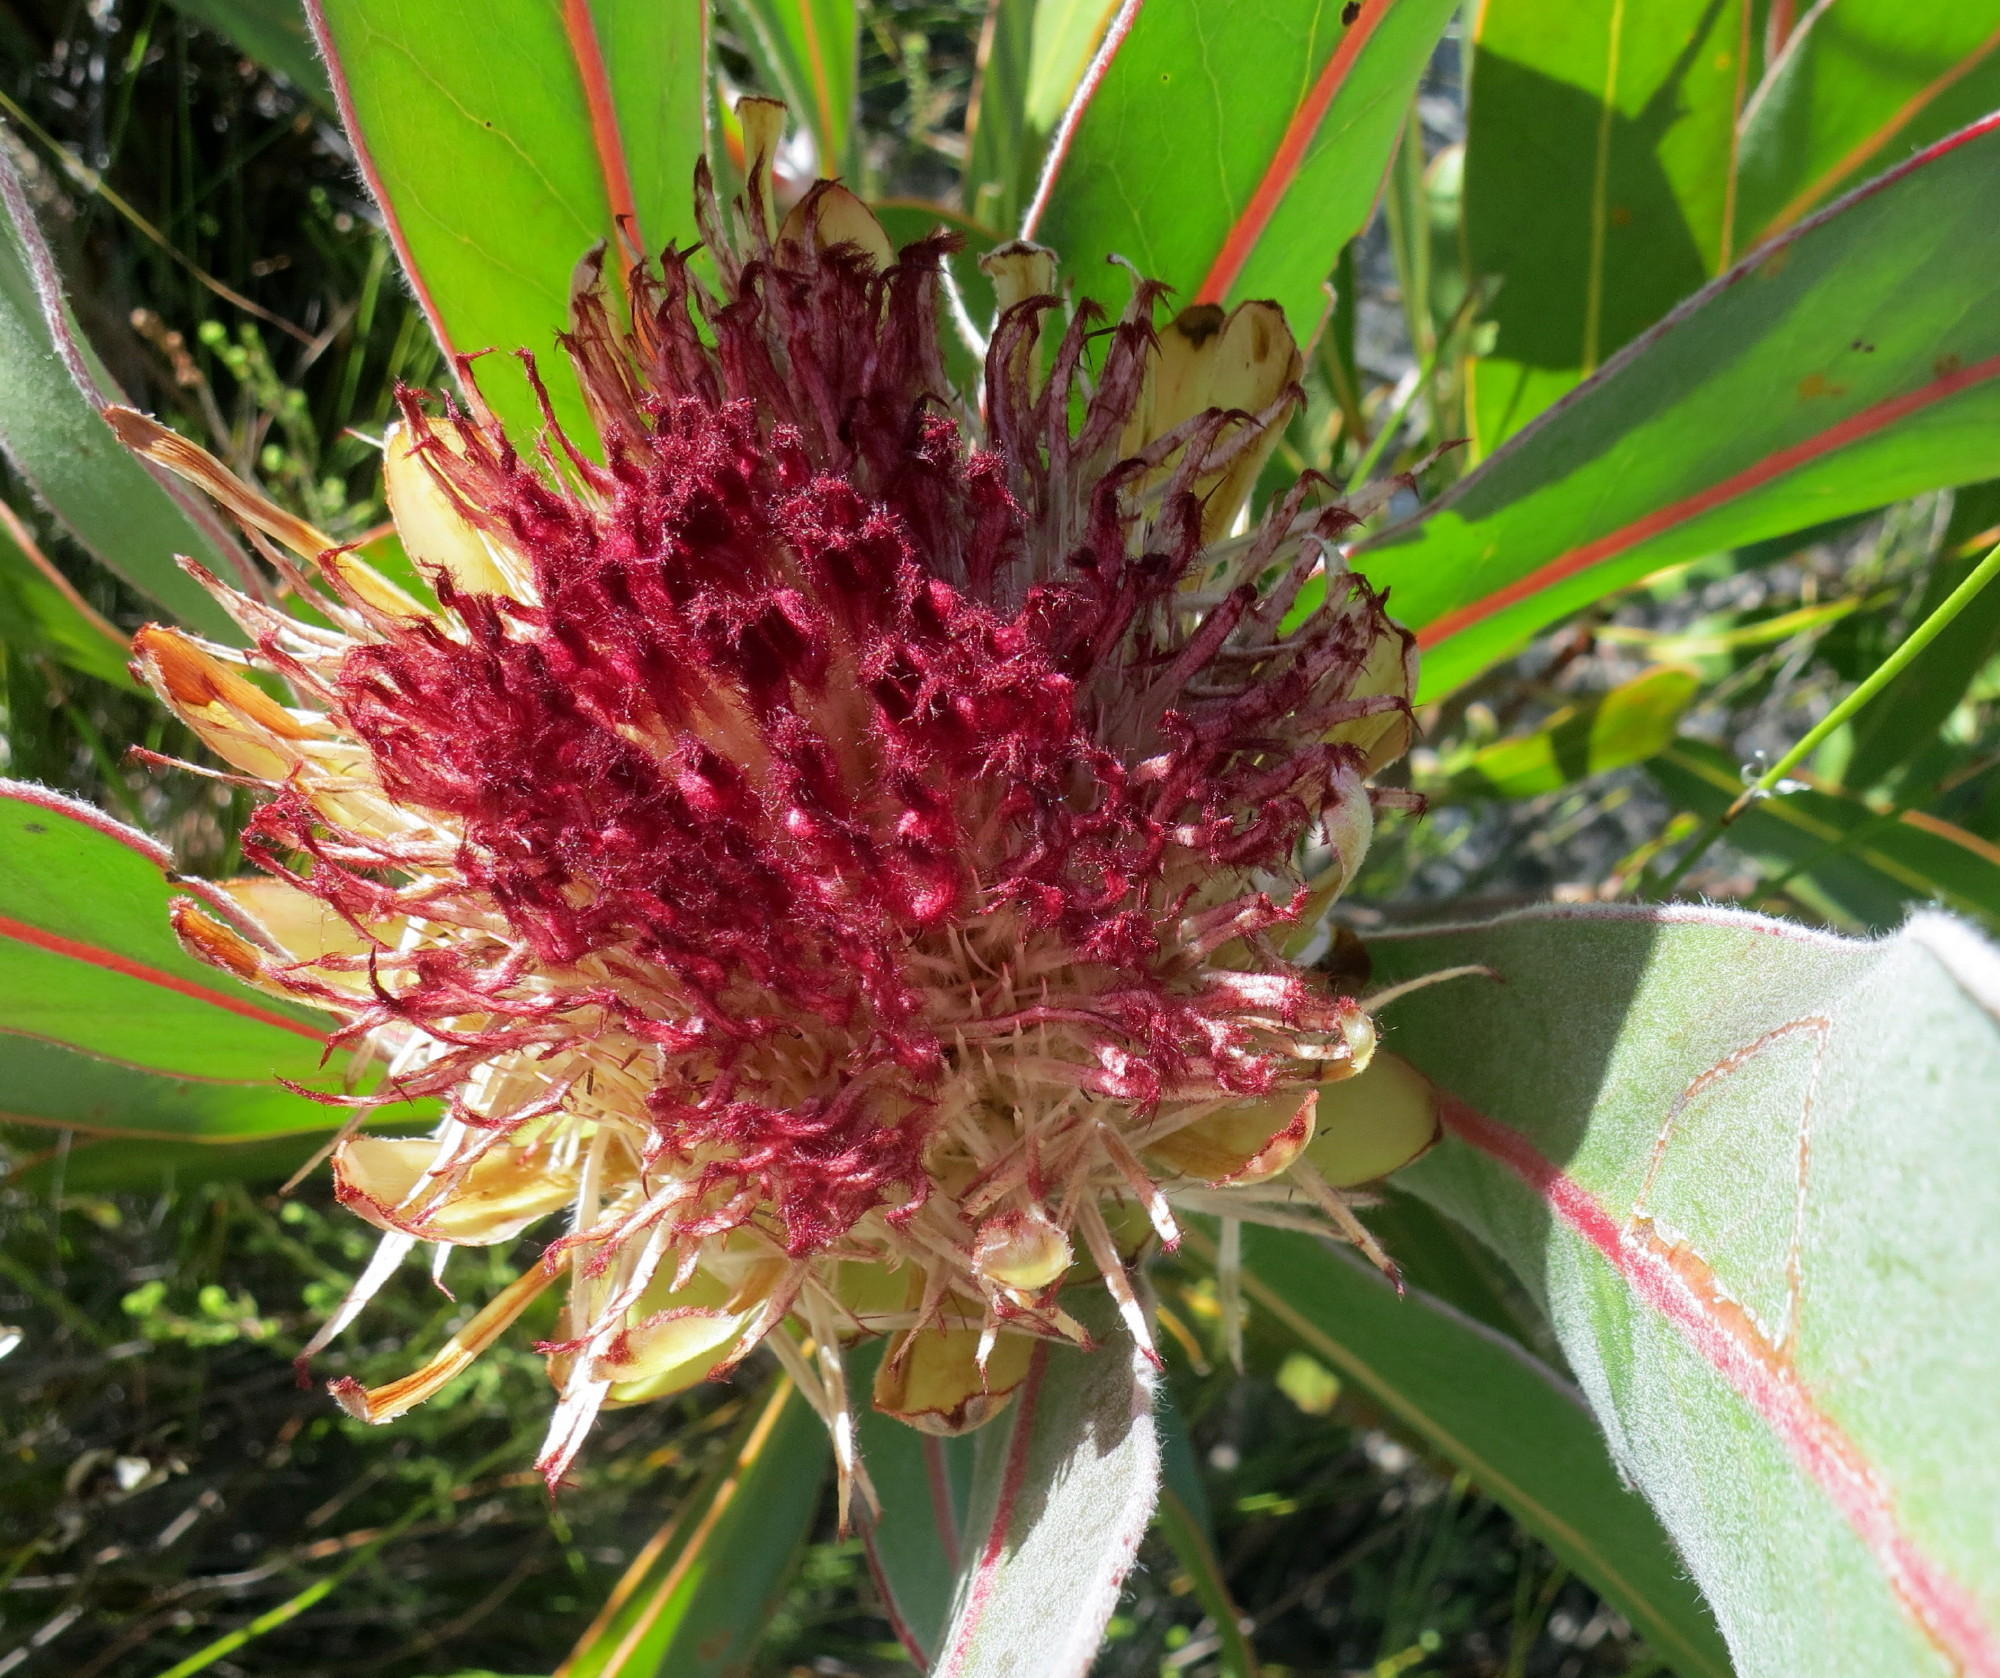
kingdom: Plantae
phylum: Tracheophyta
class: Magnoliopsida
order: Proteales
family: Proteaceae
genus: Protea
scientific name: Protea lorifolia
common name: Strap-leaved protea
